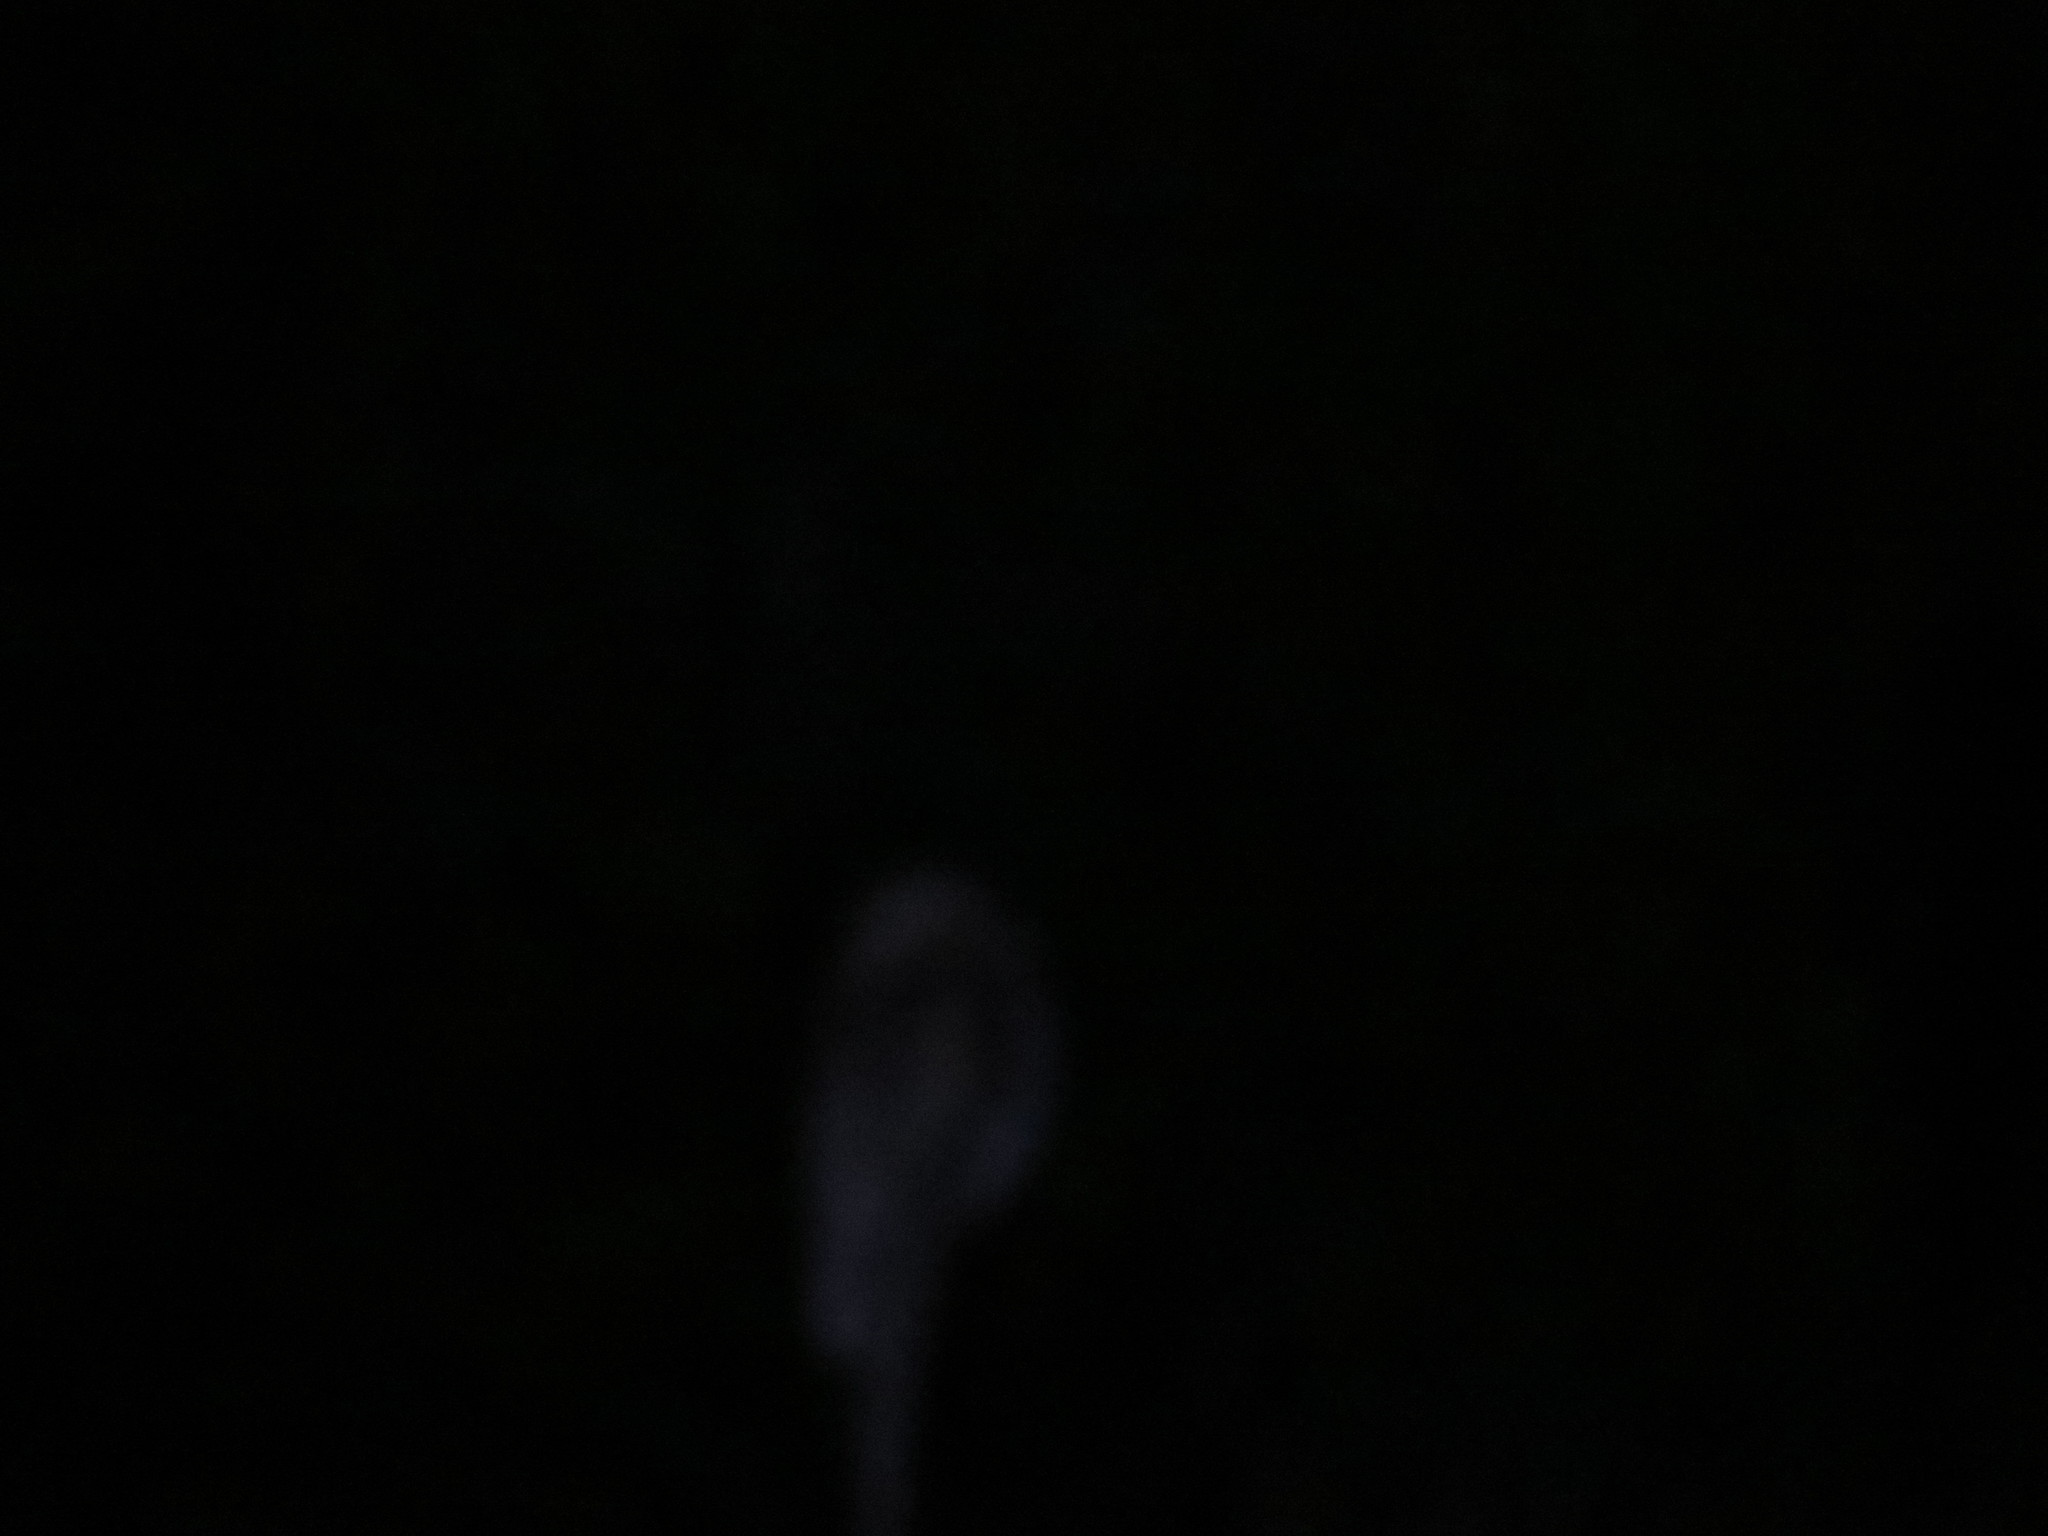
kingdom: Animalia
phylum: Chordata
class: Aves
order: Nyctibiiformes
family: Nyctibiidae
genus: Nyctibius
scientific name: Nyctibius griseus
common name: Common potoo
